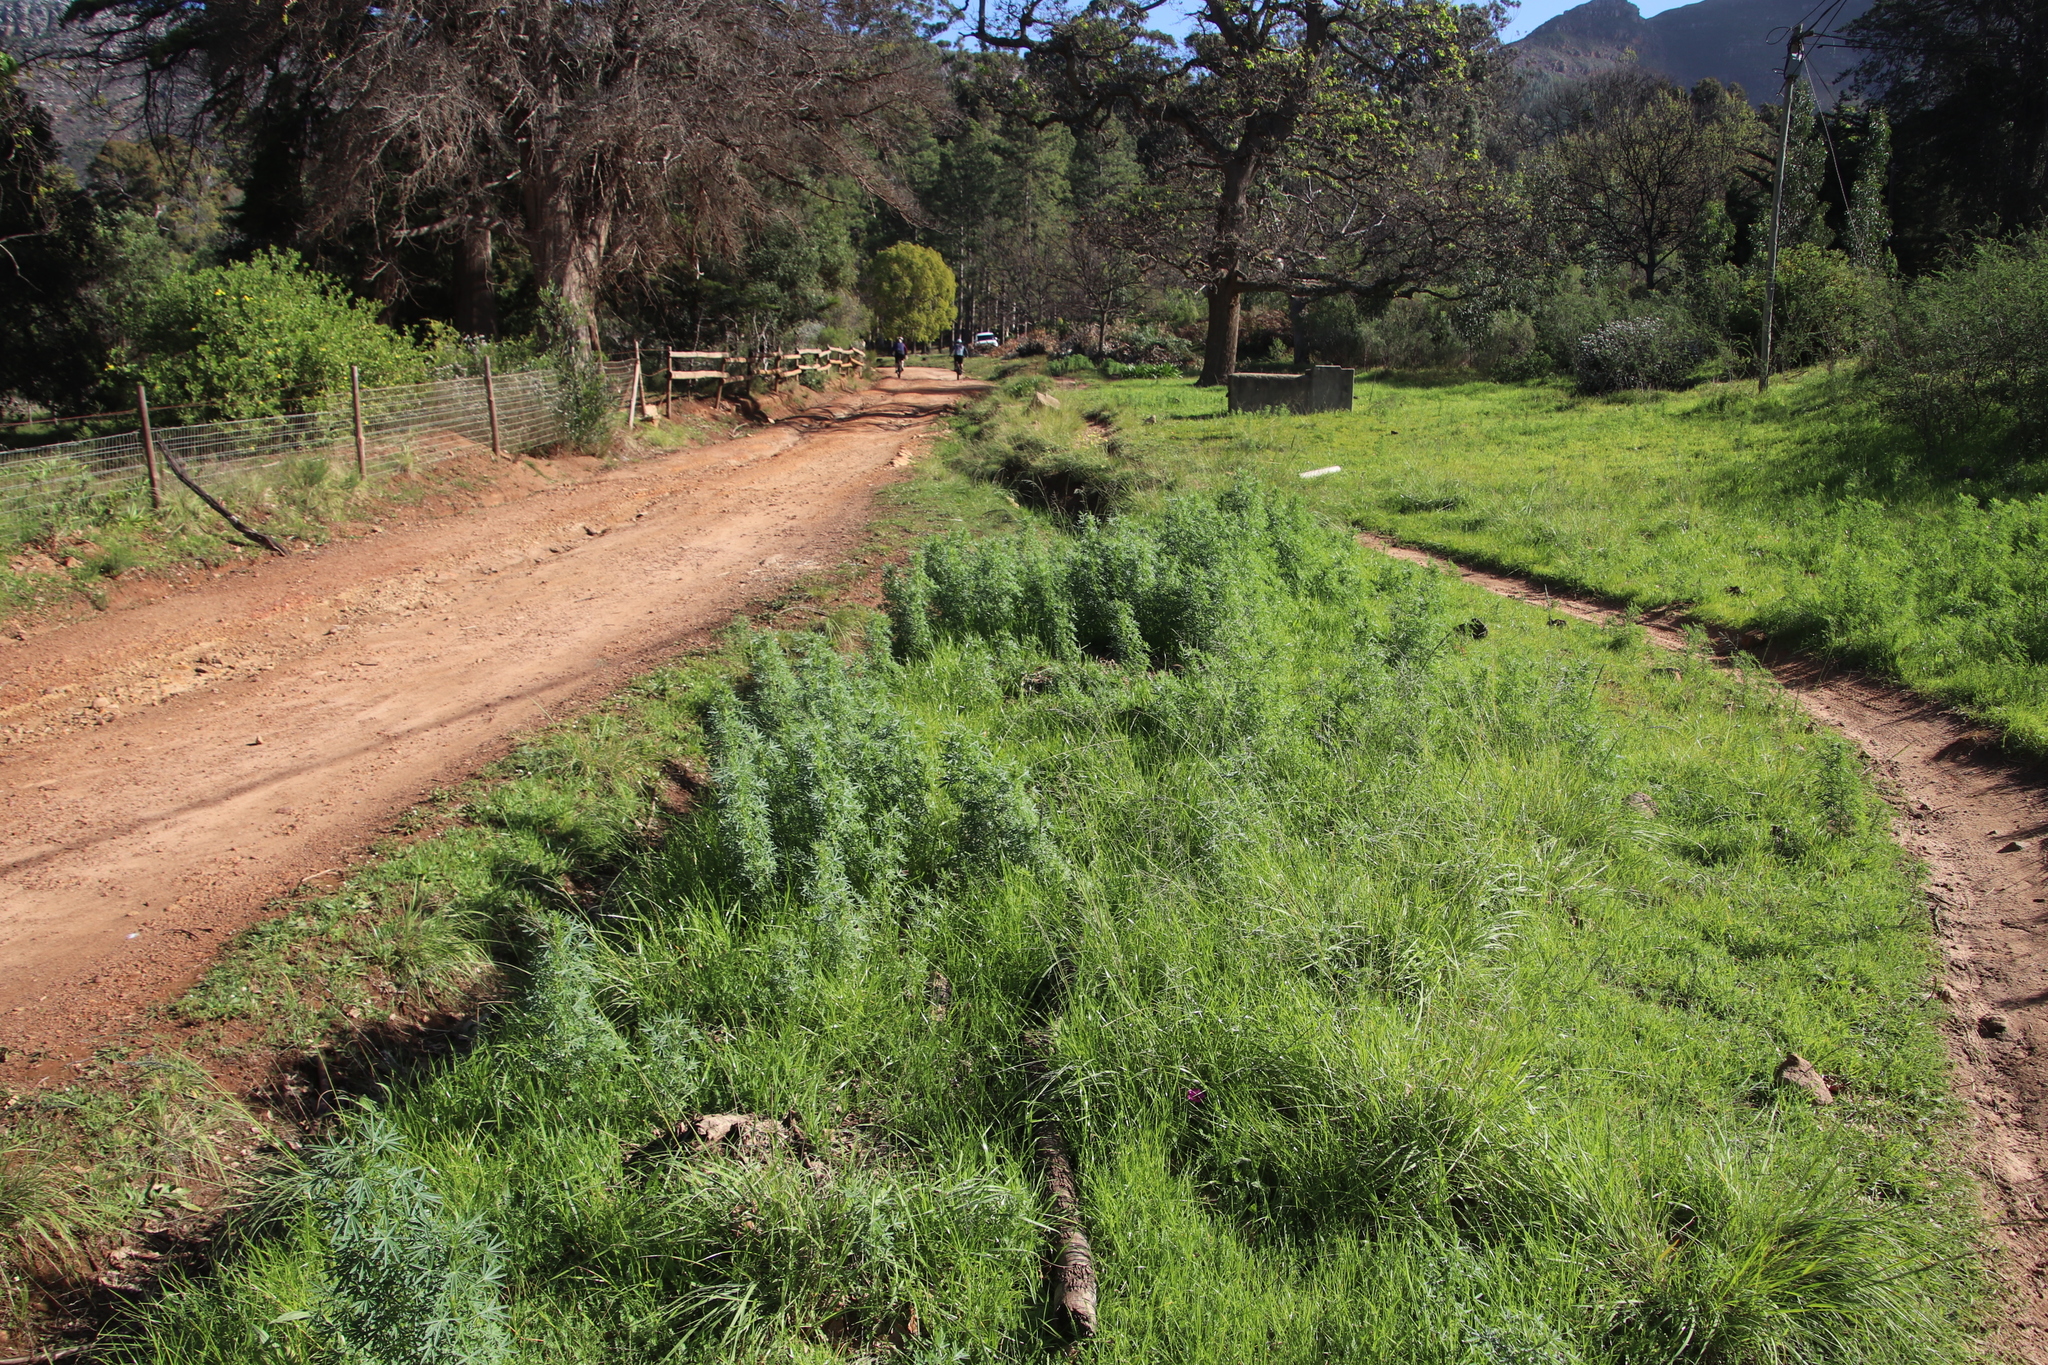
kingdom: Plantae
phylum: Tracheophyta
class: Magnoliopsida
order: Fabales
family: Fabaceae
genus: Lupinus
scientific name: Lupinus angustifolius
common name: Narrow-leaved lupin
